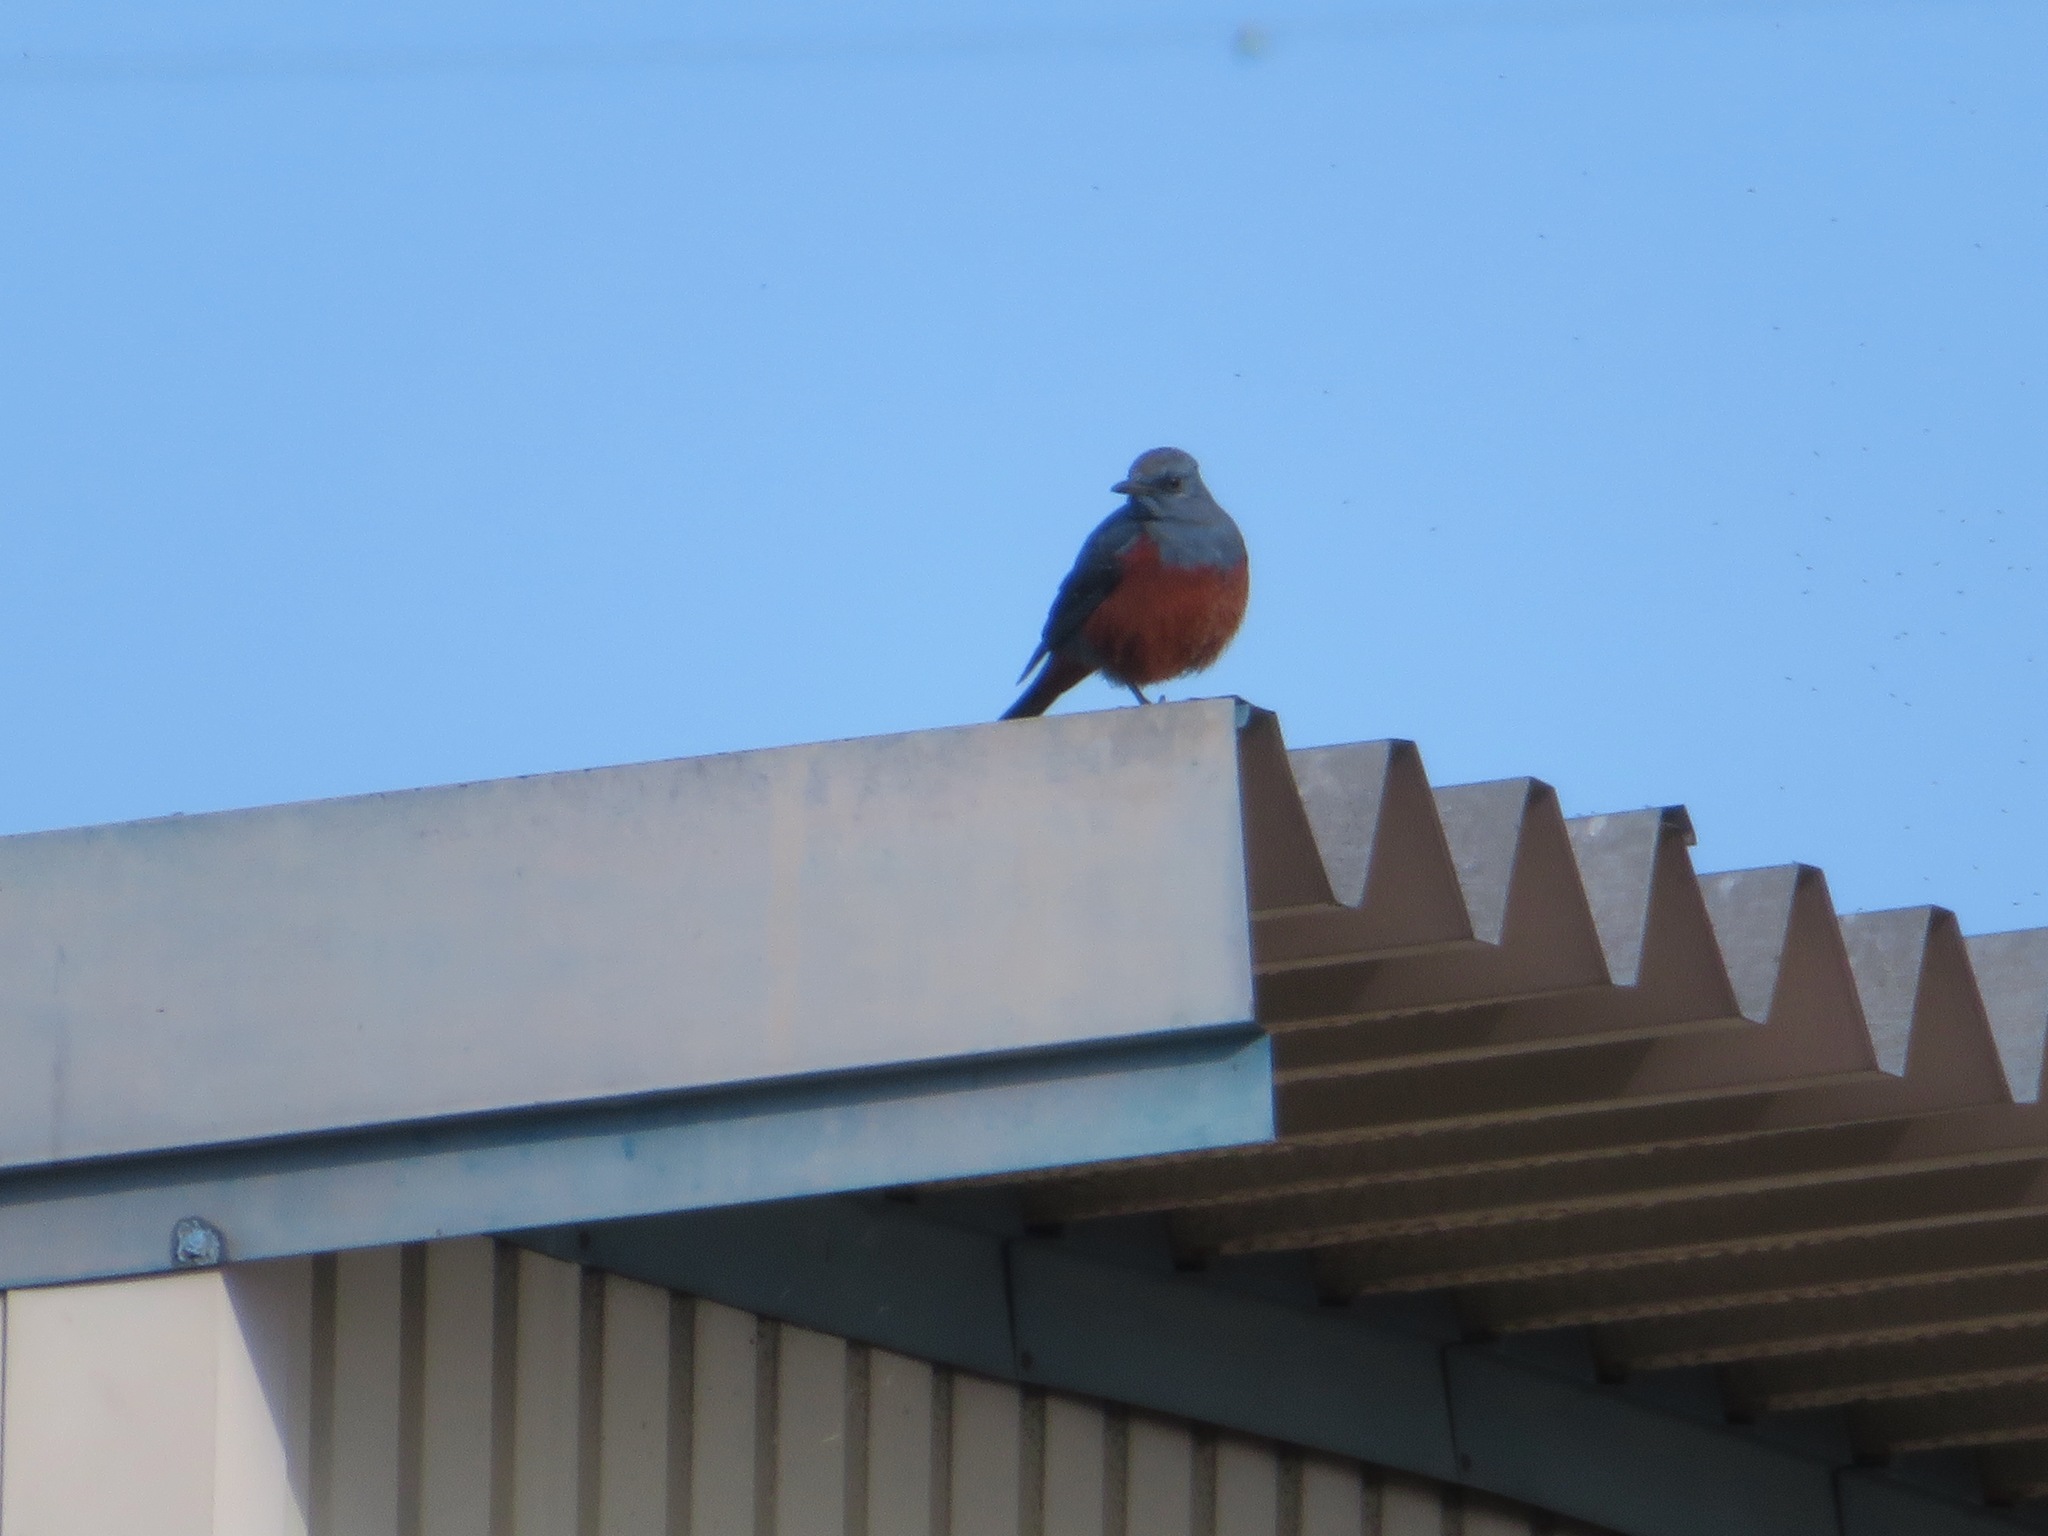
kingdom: Animalia
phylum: Chordata
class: Aves
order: Passeriformes
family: Muscicapidae
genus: Monticola
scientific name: Monticola solitarius
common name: Blue rock thrush
